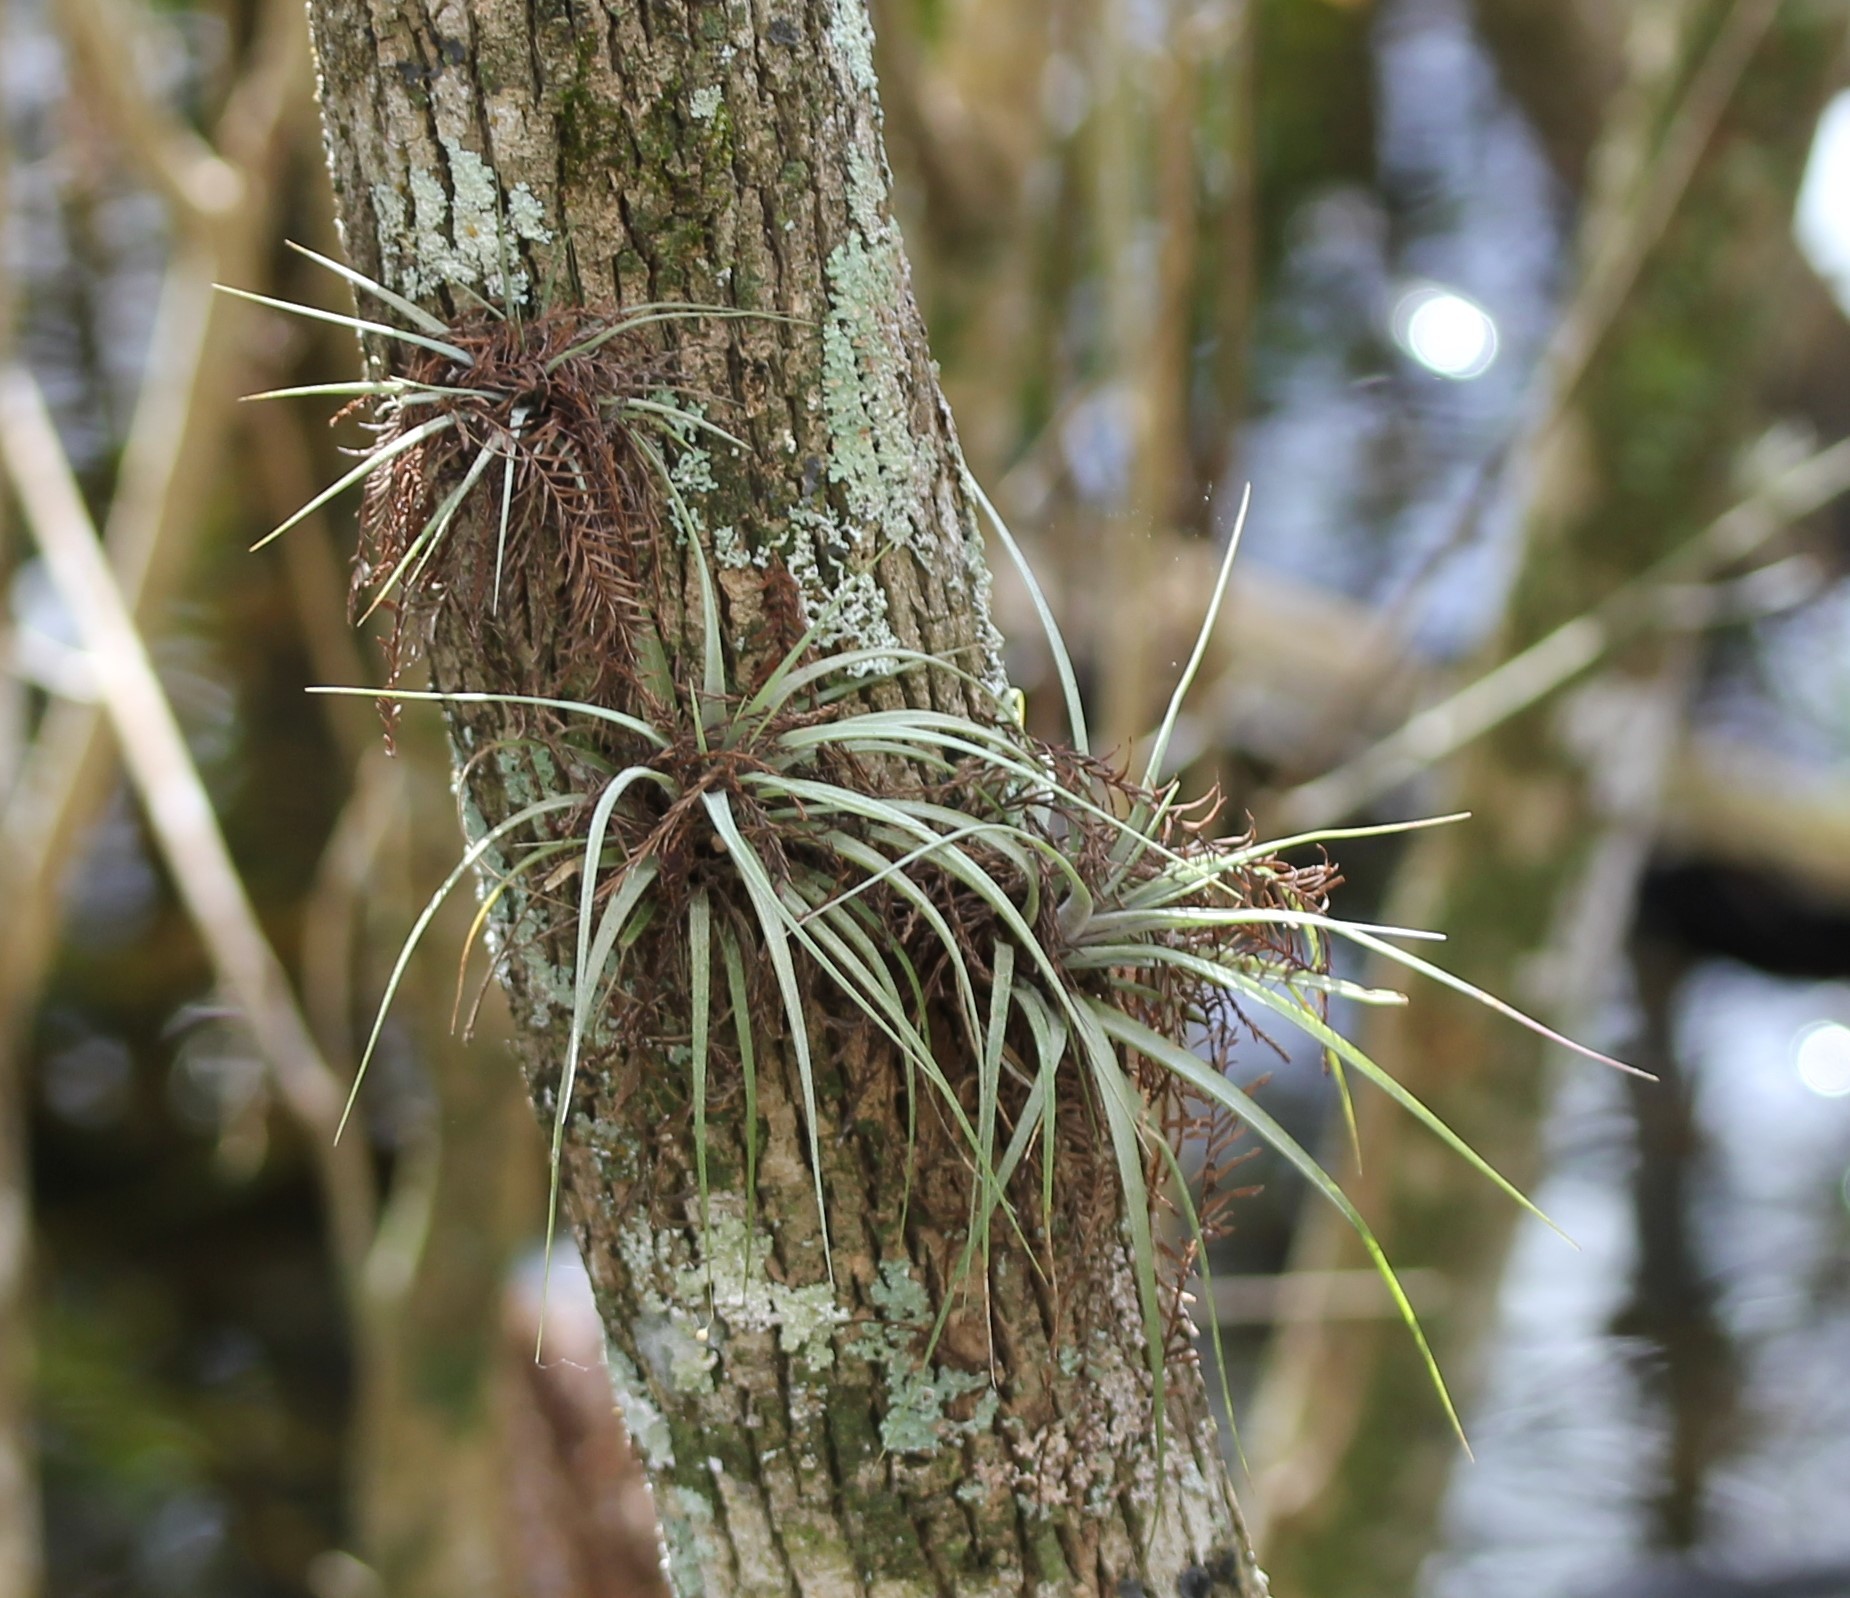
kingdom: Plantae
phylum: Tracheophyta
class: Liliopsida
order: Poales
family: Bromeliaceae
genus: Tillandsia
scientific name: Tillandsia fasciculata
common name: Giant airplant
